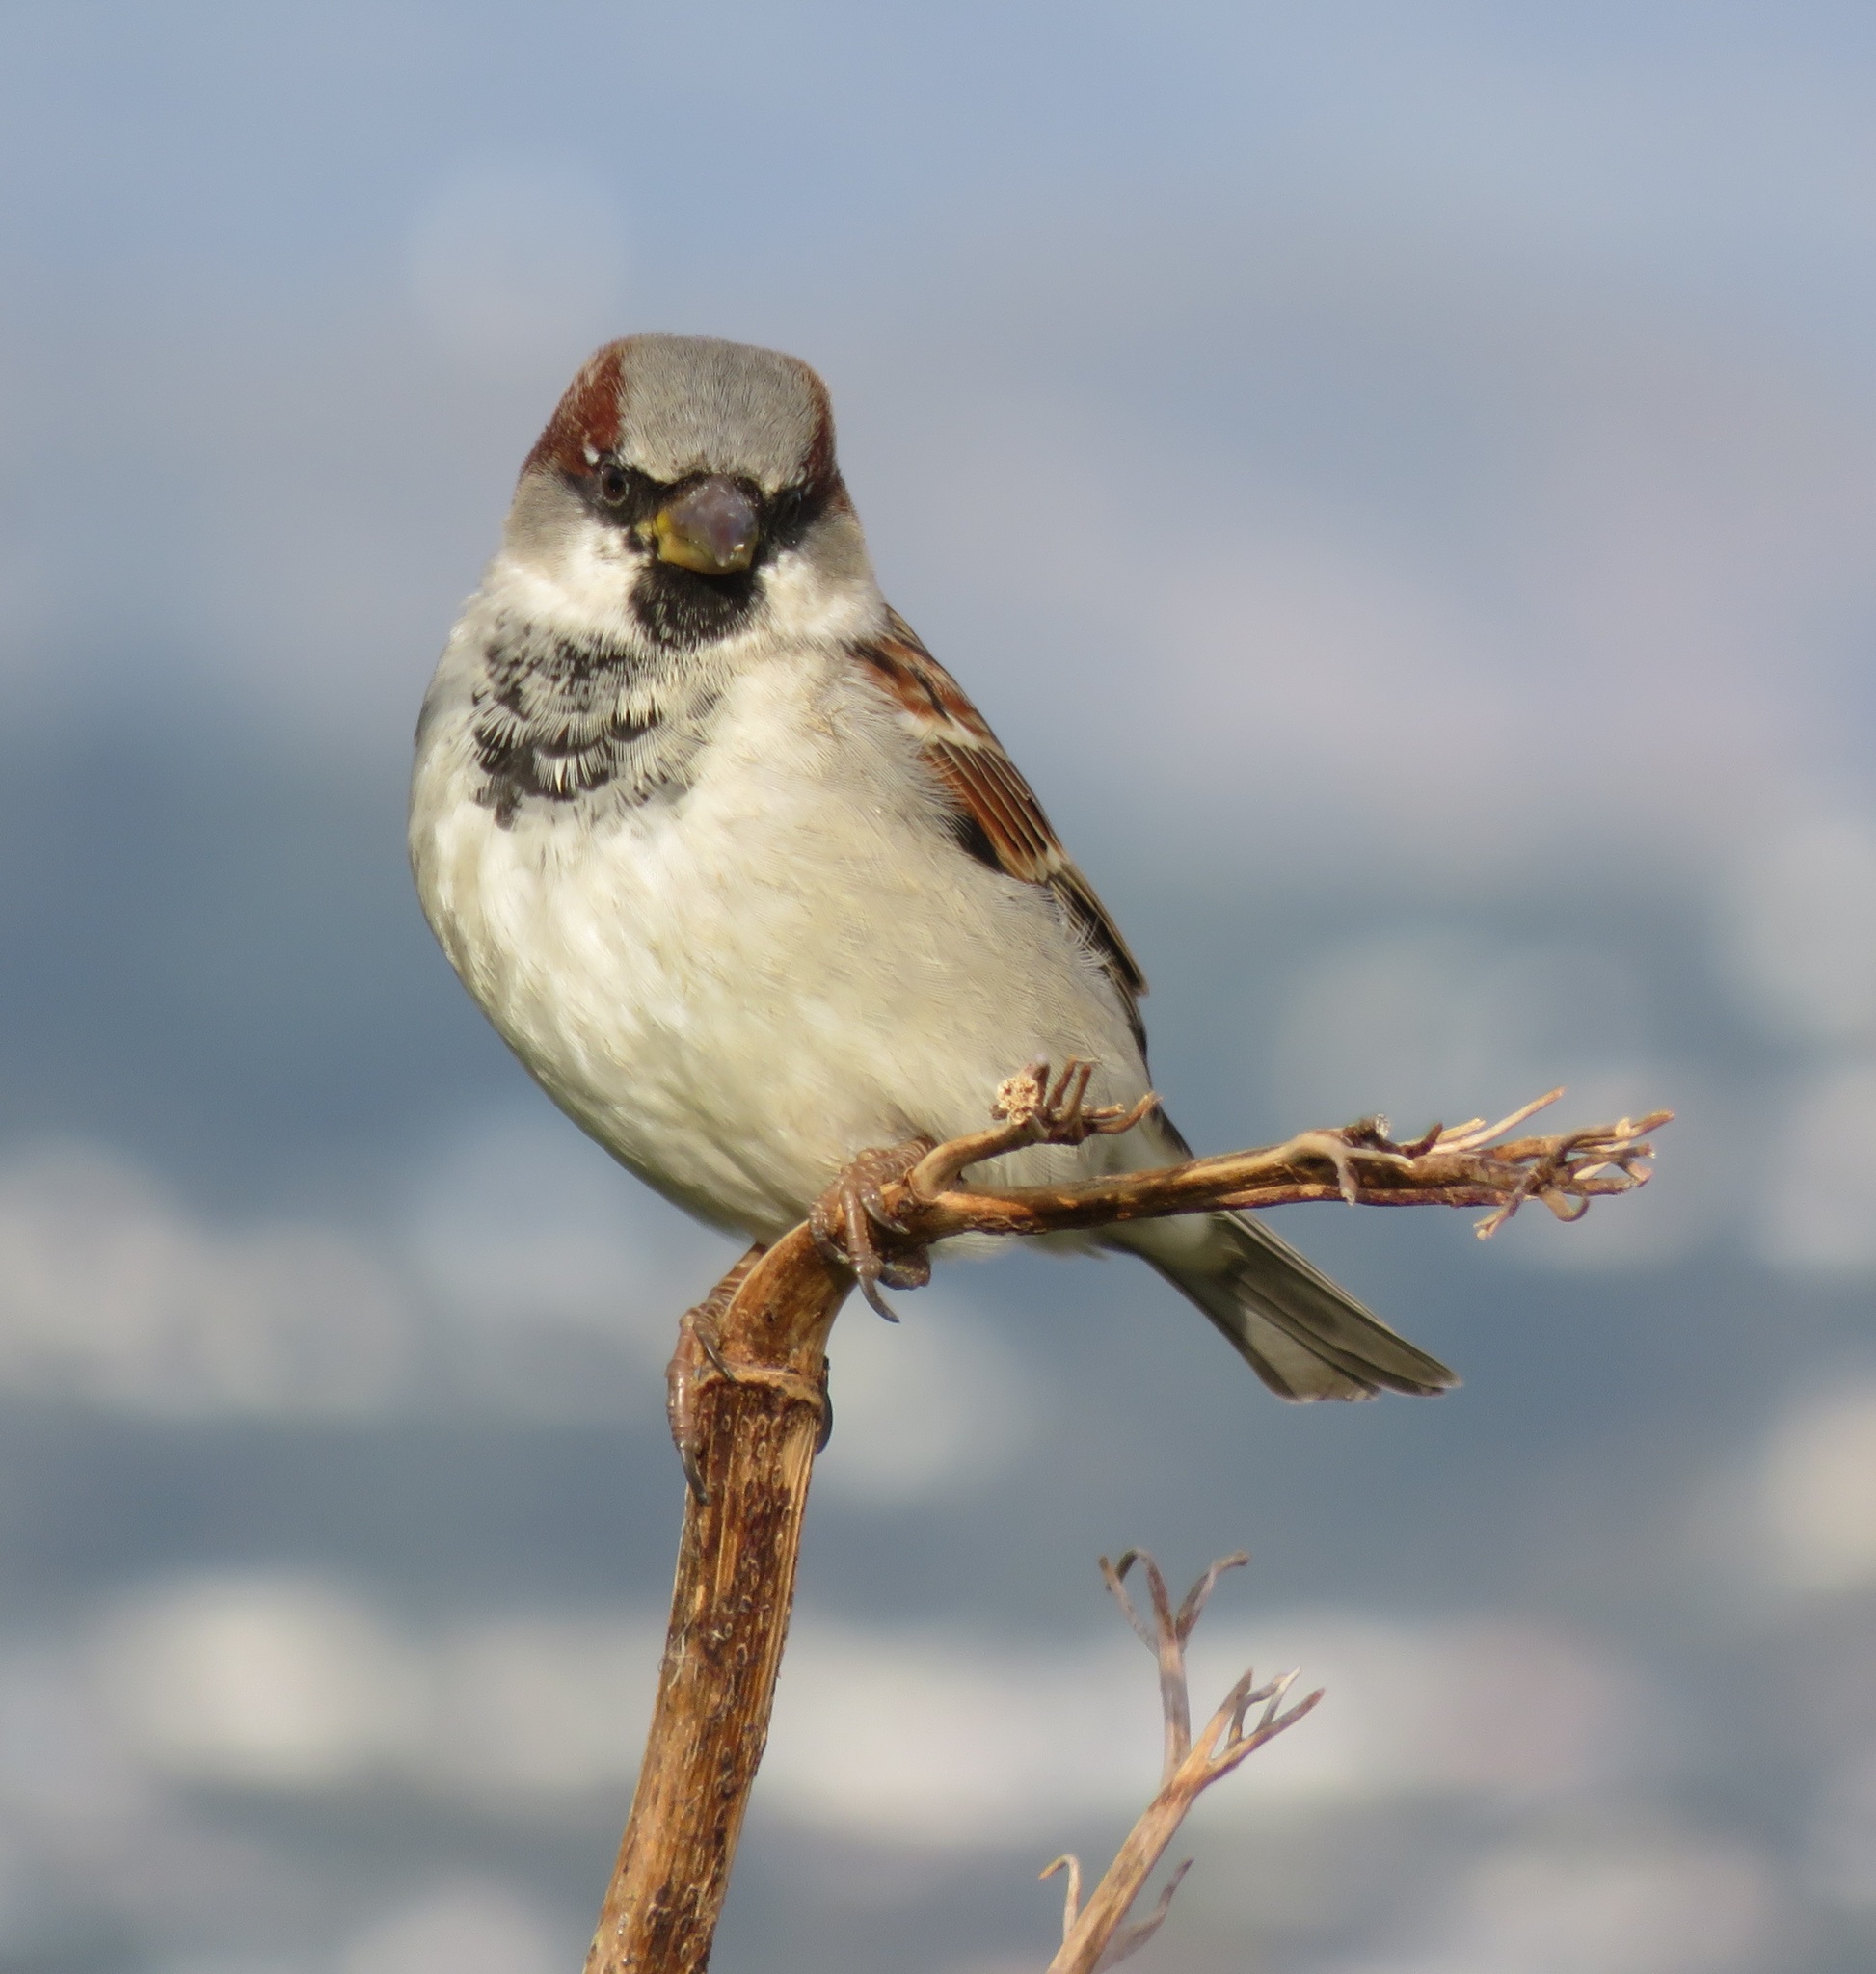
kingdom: Animalia
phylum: Chordata
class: Aves
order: Passeriformes
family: Passeridae
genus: Passer
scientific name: Passer domesticus
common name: House sparrow
